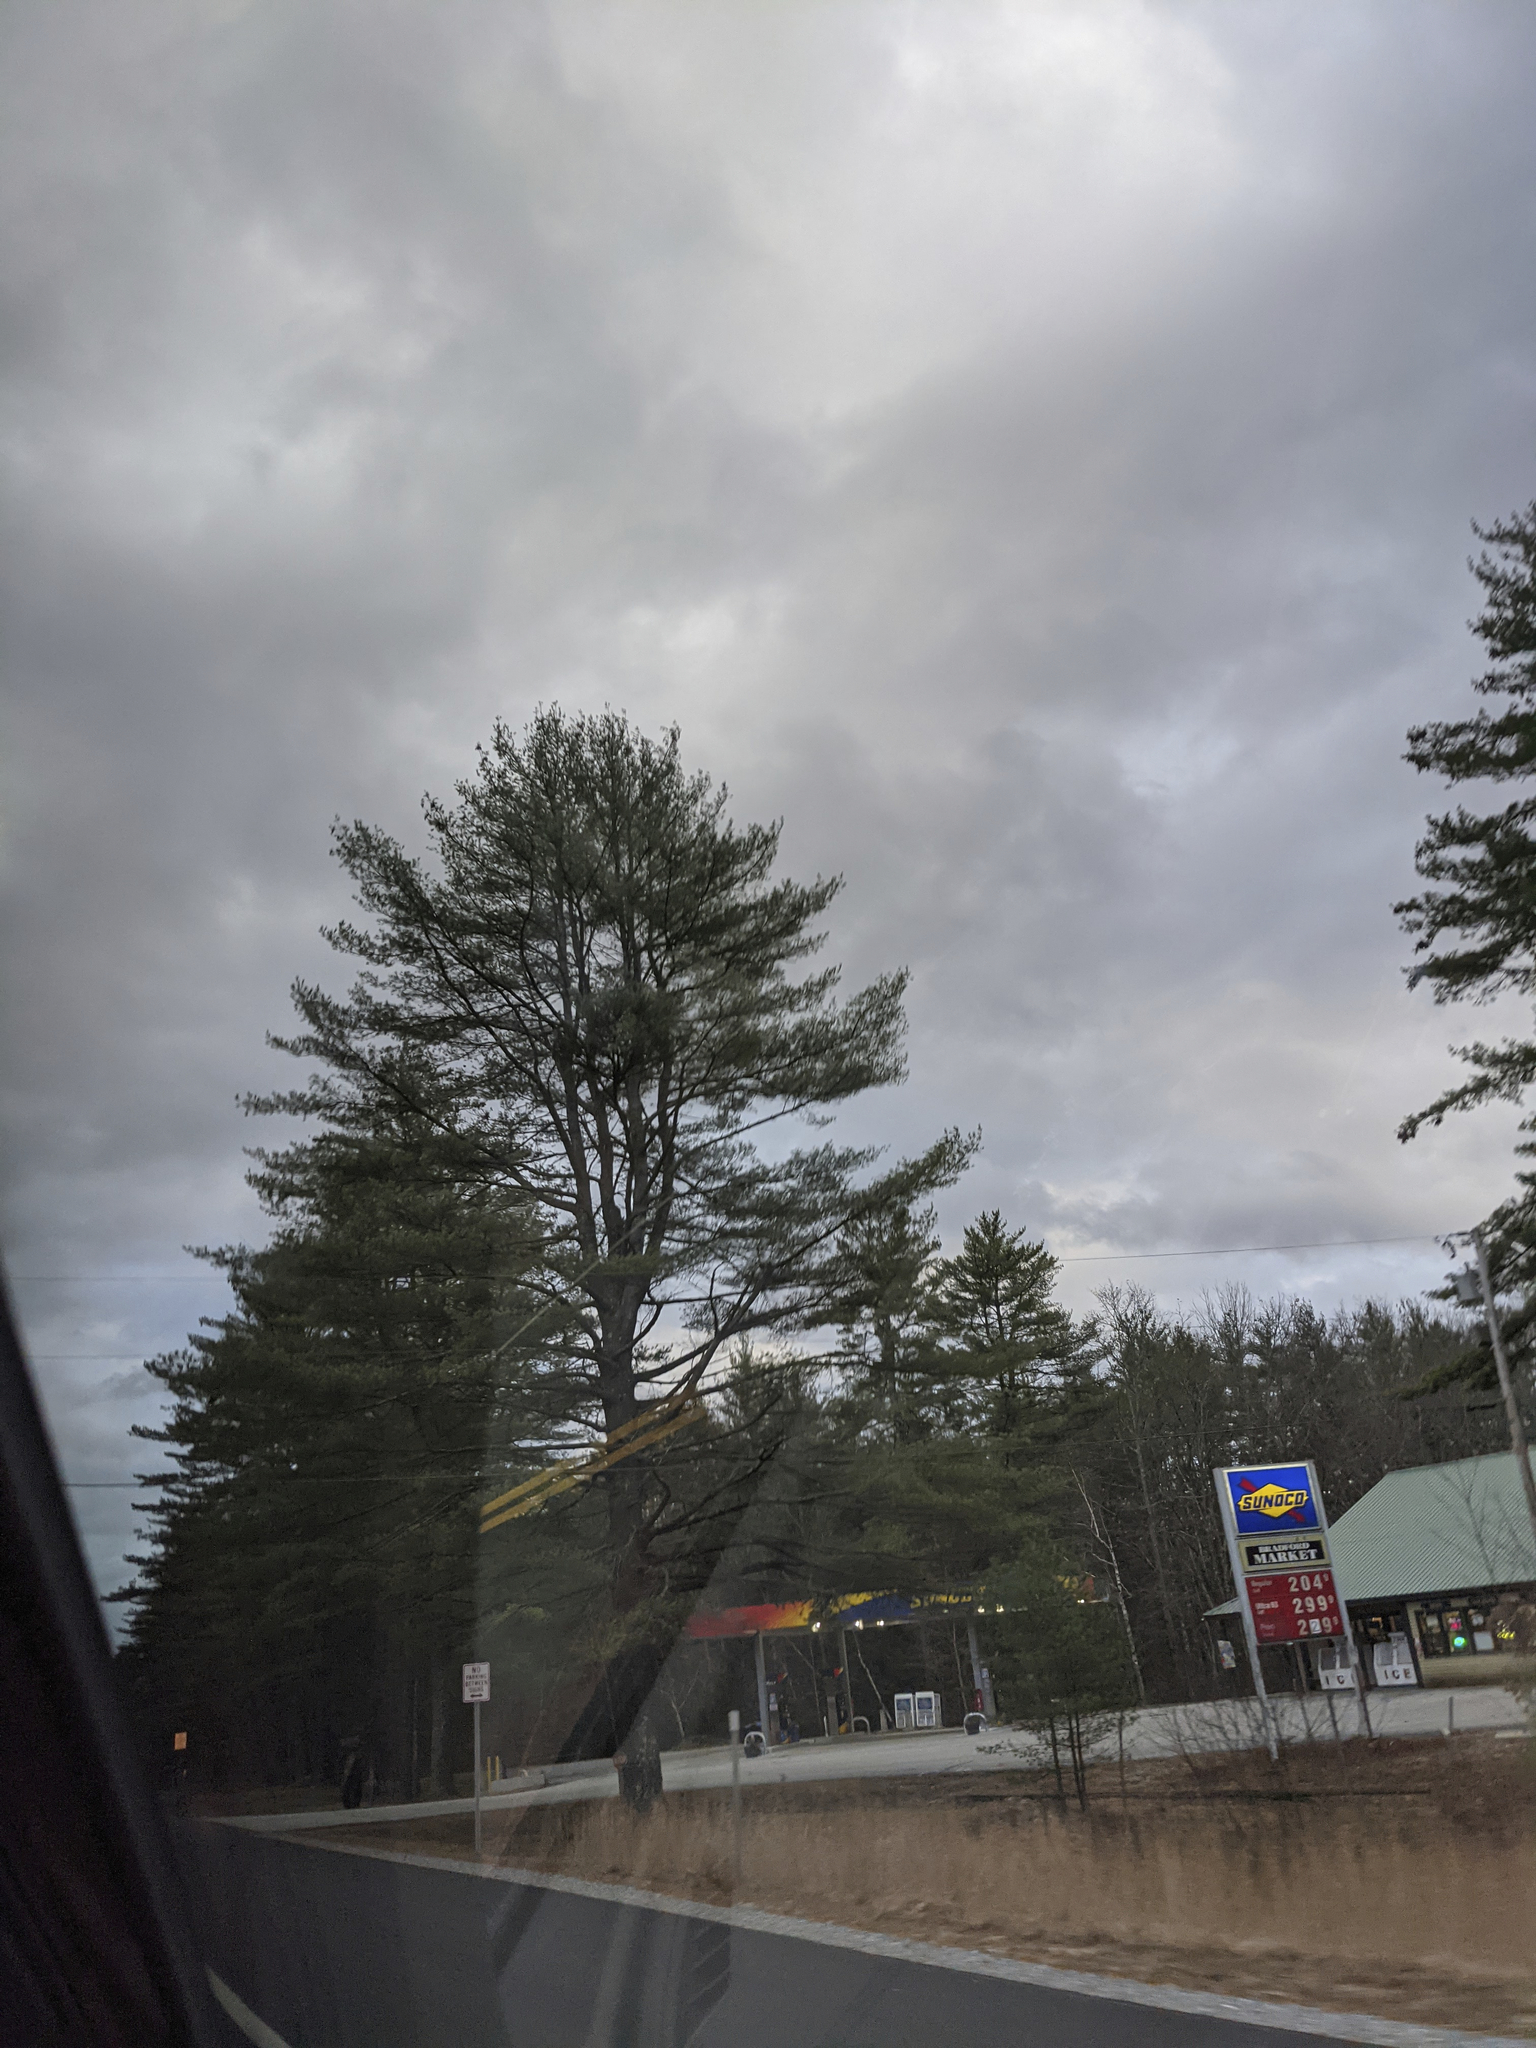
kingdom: Plantae
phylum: Tracheophyta
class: Pinopsida
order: Pinales
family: Pinaceae
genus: Pinus
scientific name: Pinus strobus
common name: Weymouth pine
